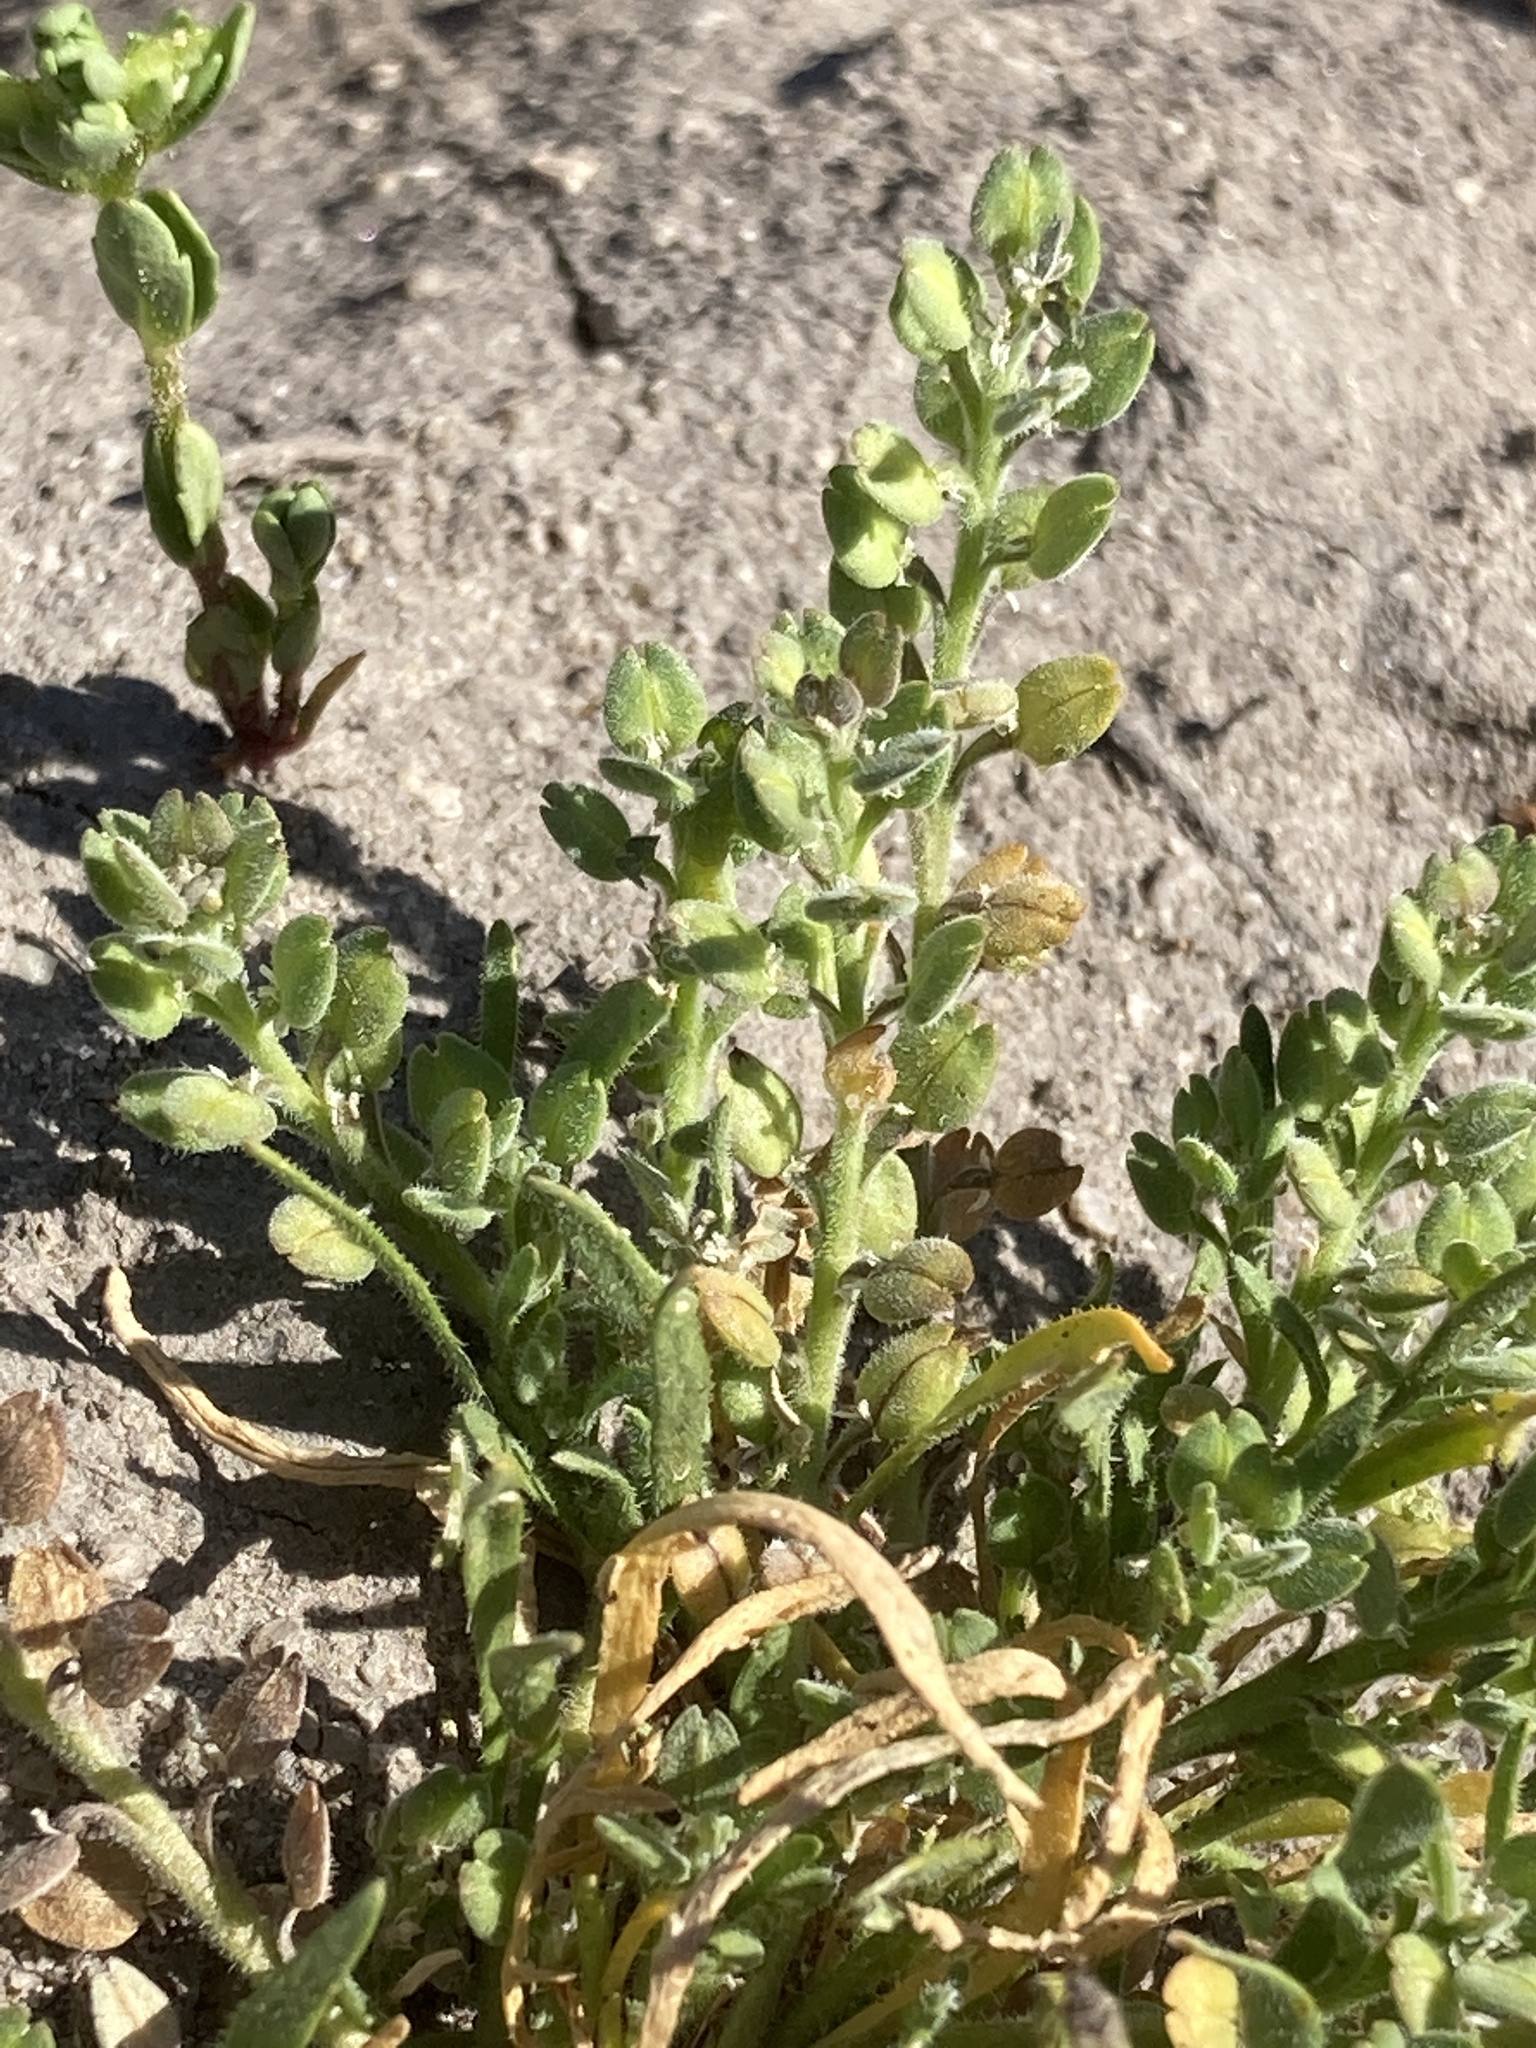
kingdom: Plantae
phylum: Tracheophyta
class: Magnoliopsida
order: Brassicales
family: Brassicaceae
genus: Lepidium
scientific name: Lepidium dictyotum
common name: Alkali pepperwort
